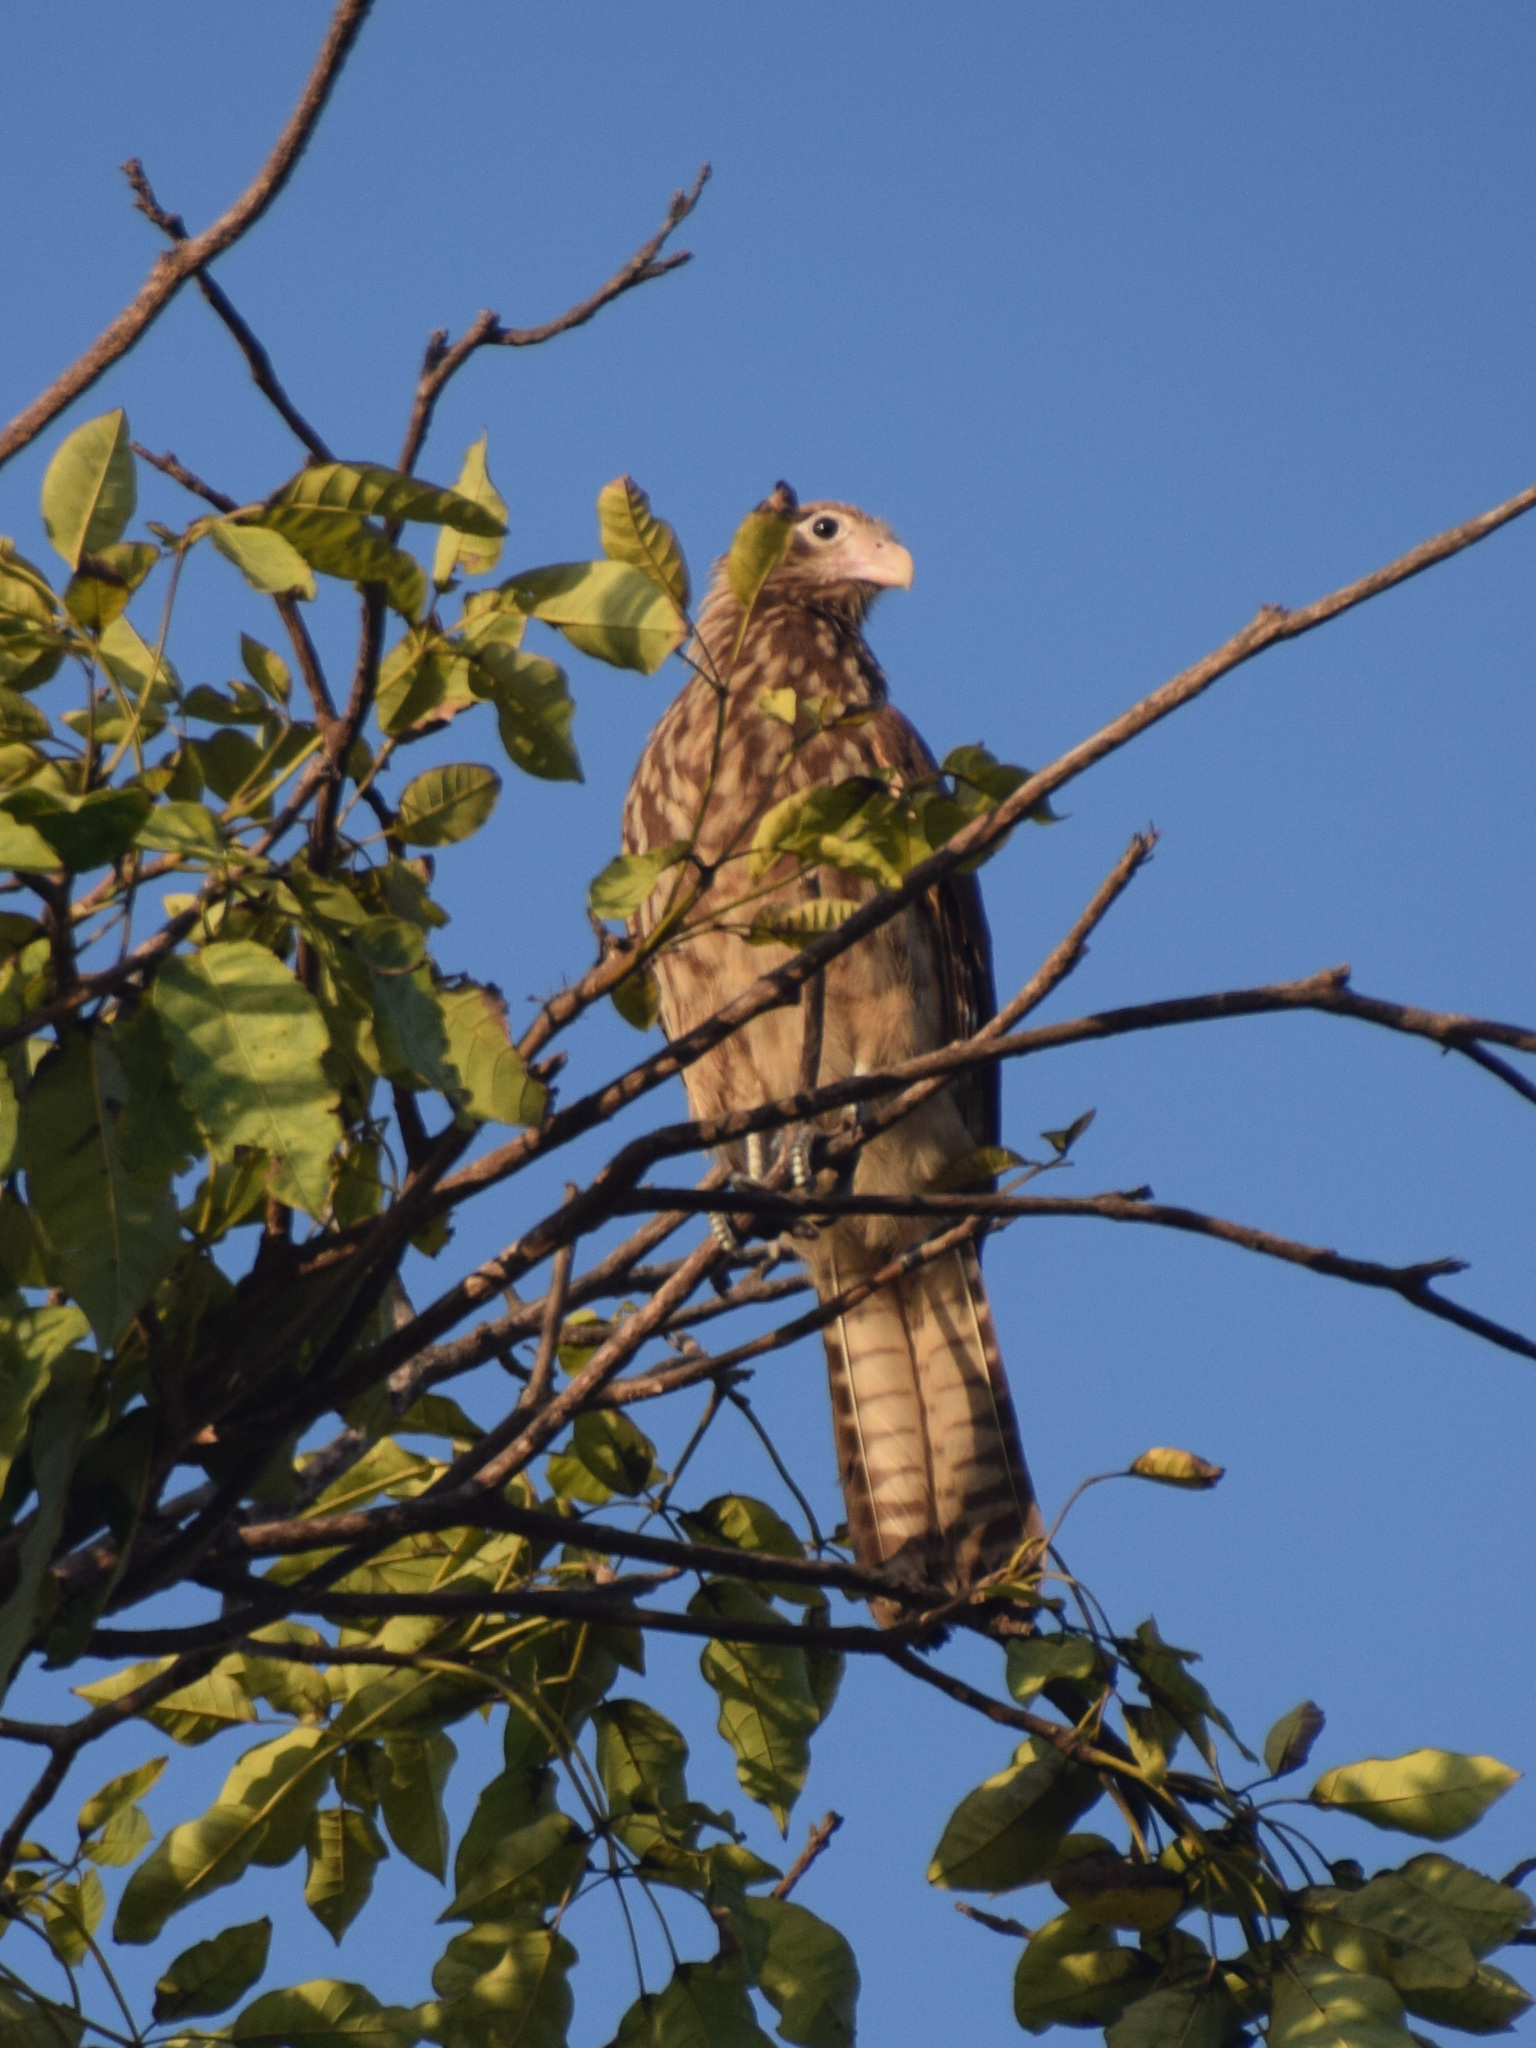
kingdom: Animalia
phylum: Chordata
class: Aves
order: Falconiformes
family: Falconidae
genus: Daptrius
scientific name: Daptrius
